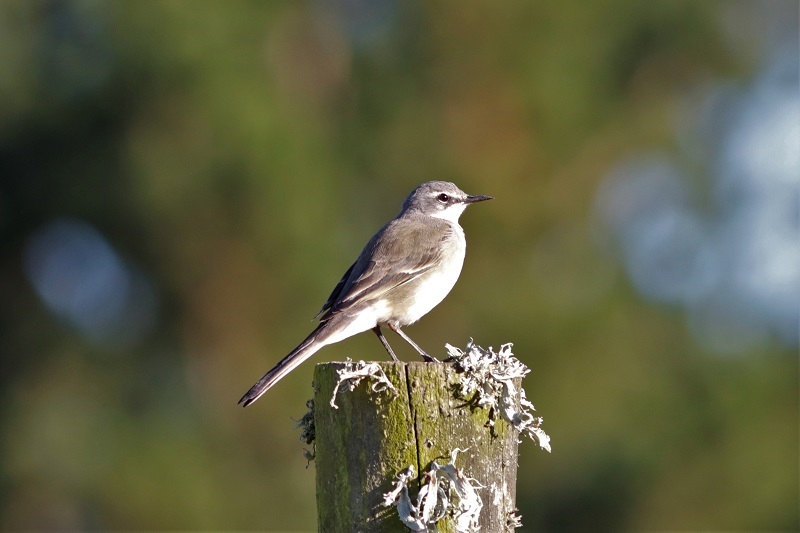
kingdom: Animalia
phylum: Chordata
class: Aves
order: Passeriformes
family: Motacillidae
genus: Motacilla
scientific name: Motacilla capensis
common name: Cape wagtail
